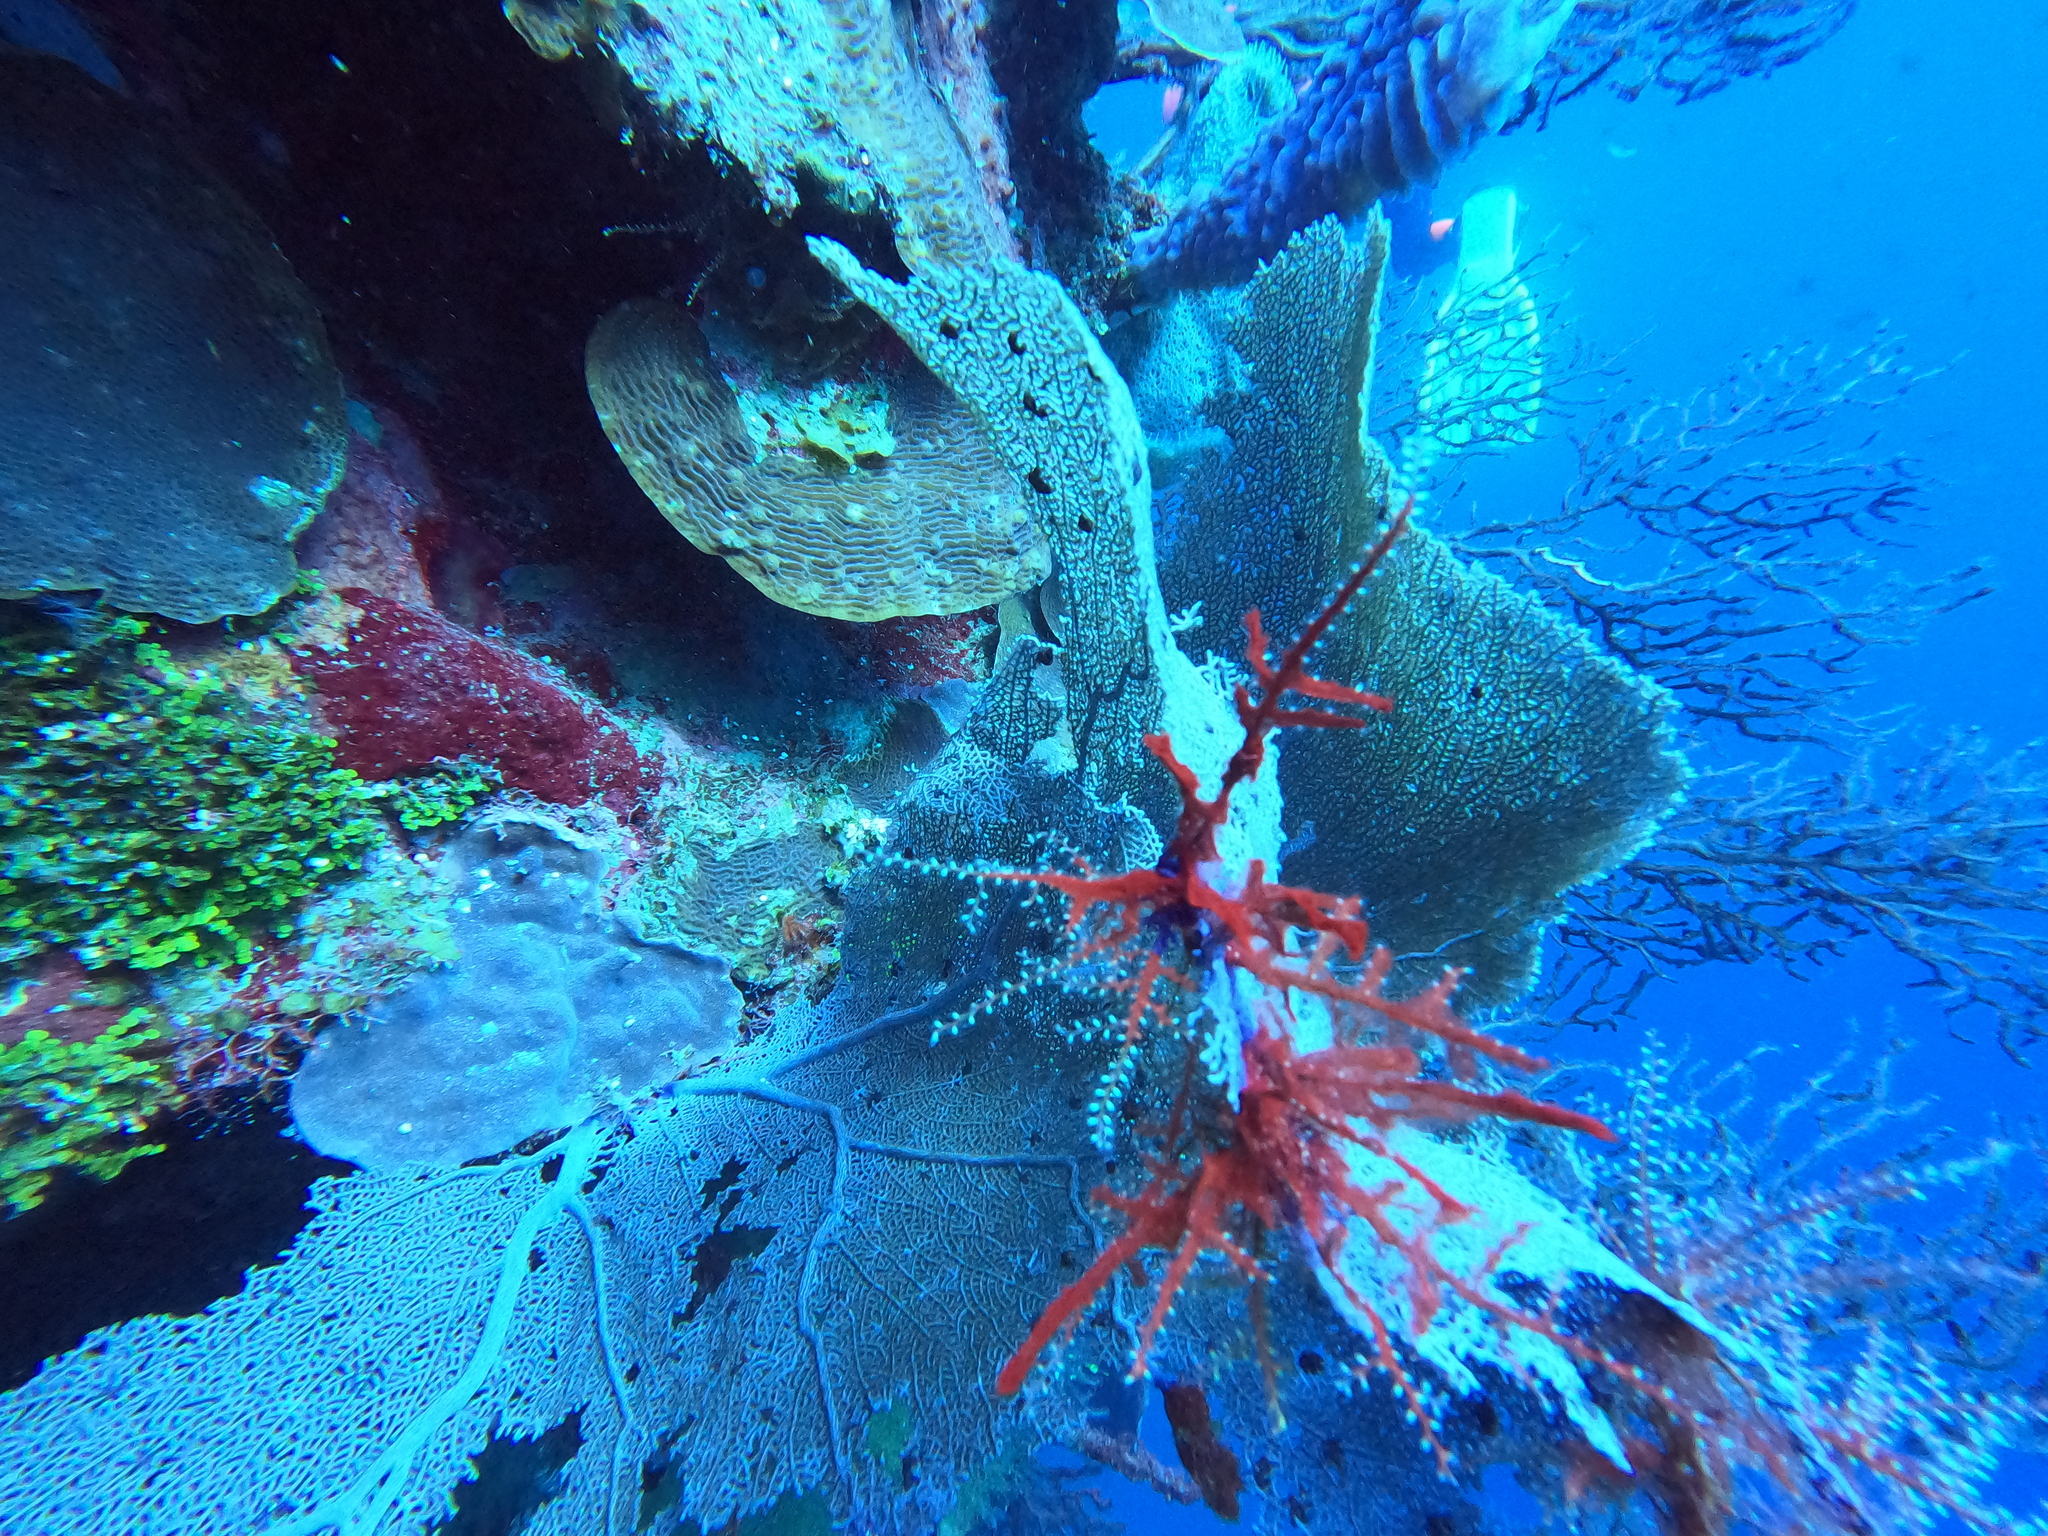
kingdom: Animalia
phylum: Cnidaria
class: Anthozoa
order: Malacalcyonacea
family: Gorgoniidae
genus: Gorgonia
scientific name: Gorgonia ventalina
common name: Common sea fan
